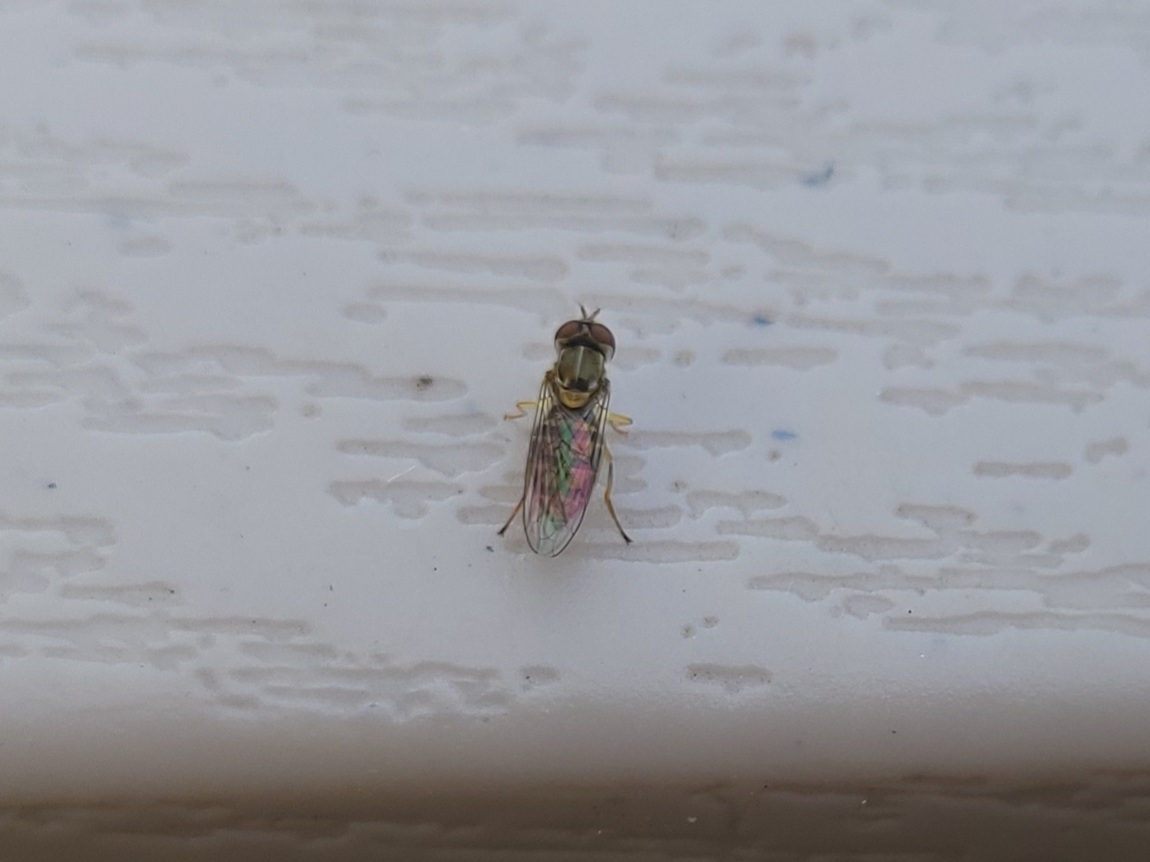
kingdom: Animalia
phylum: Arthropoda
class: Insecta
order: Diptera
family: Syrphidae
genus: Toxomerus
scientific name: Toxomerus marginatus
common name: Syrphid fly
